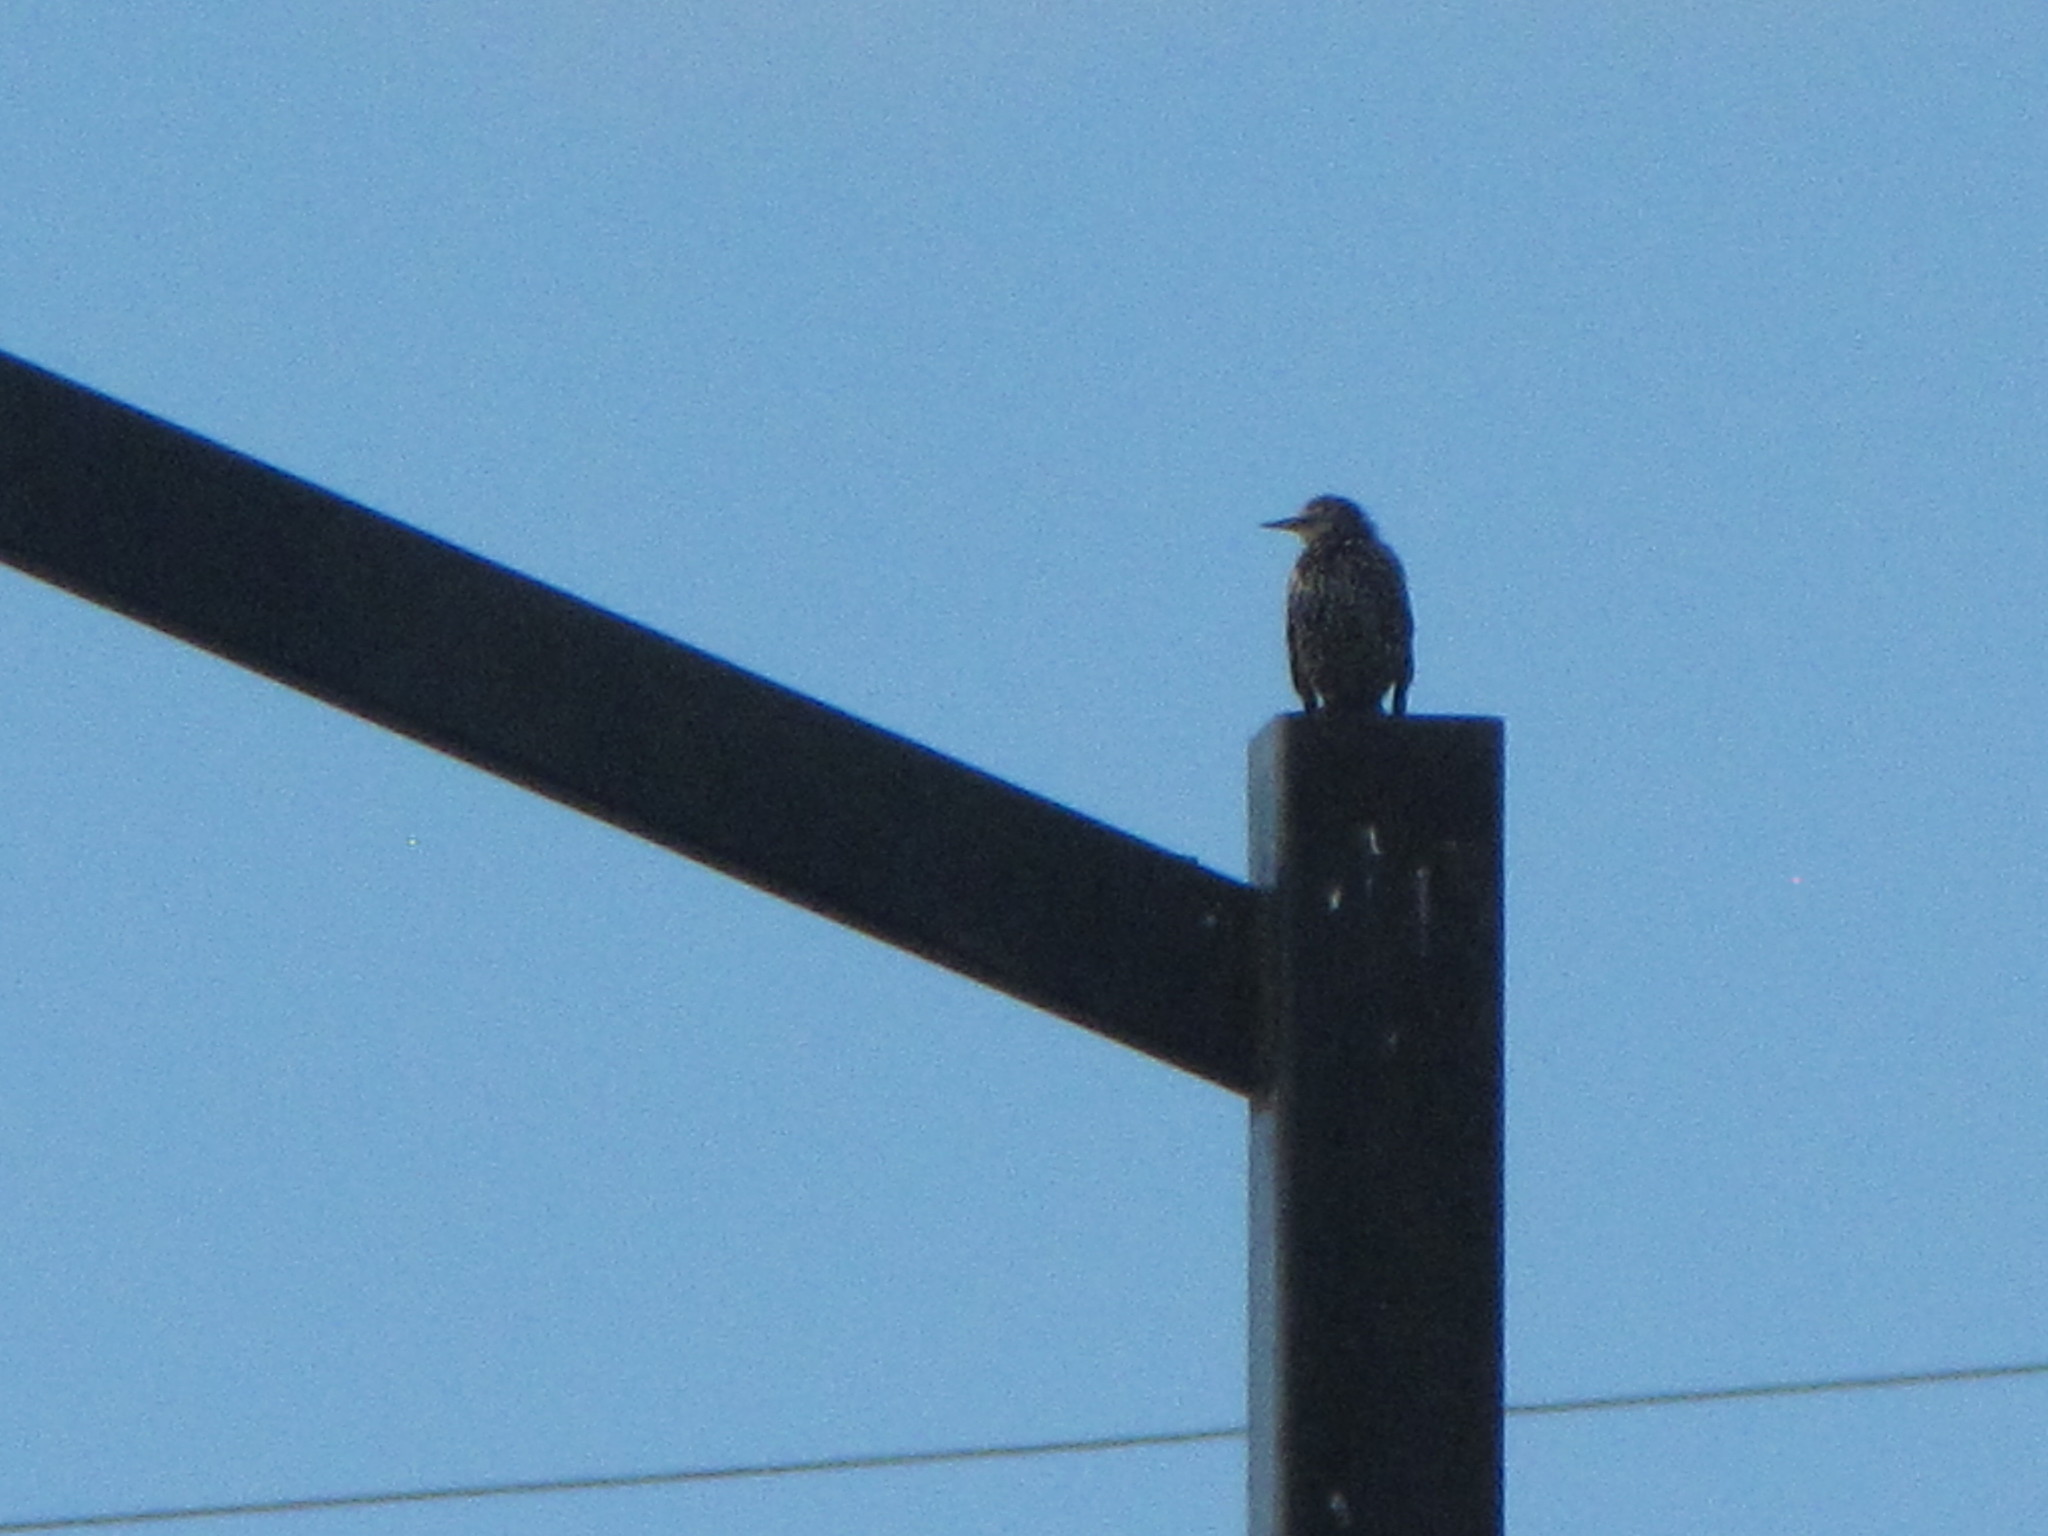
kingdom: Animalia
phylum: Chordata
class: Aves
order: Passeriformes
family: Sturnidae
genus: Sturnus
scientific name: Sturnus vulgaris
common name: Common starling
